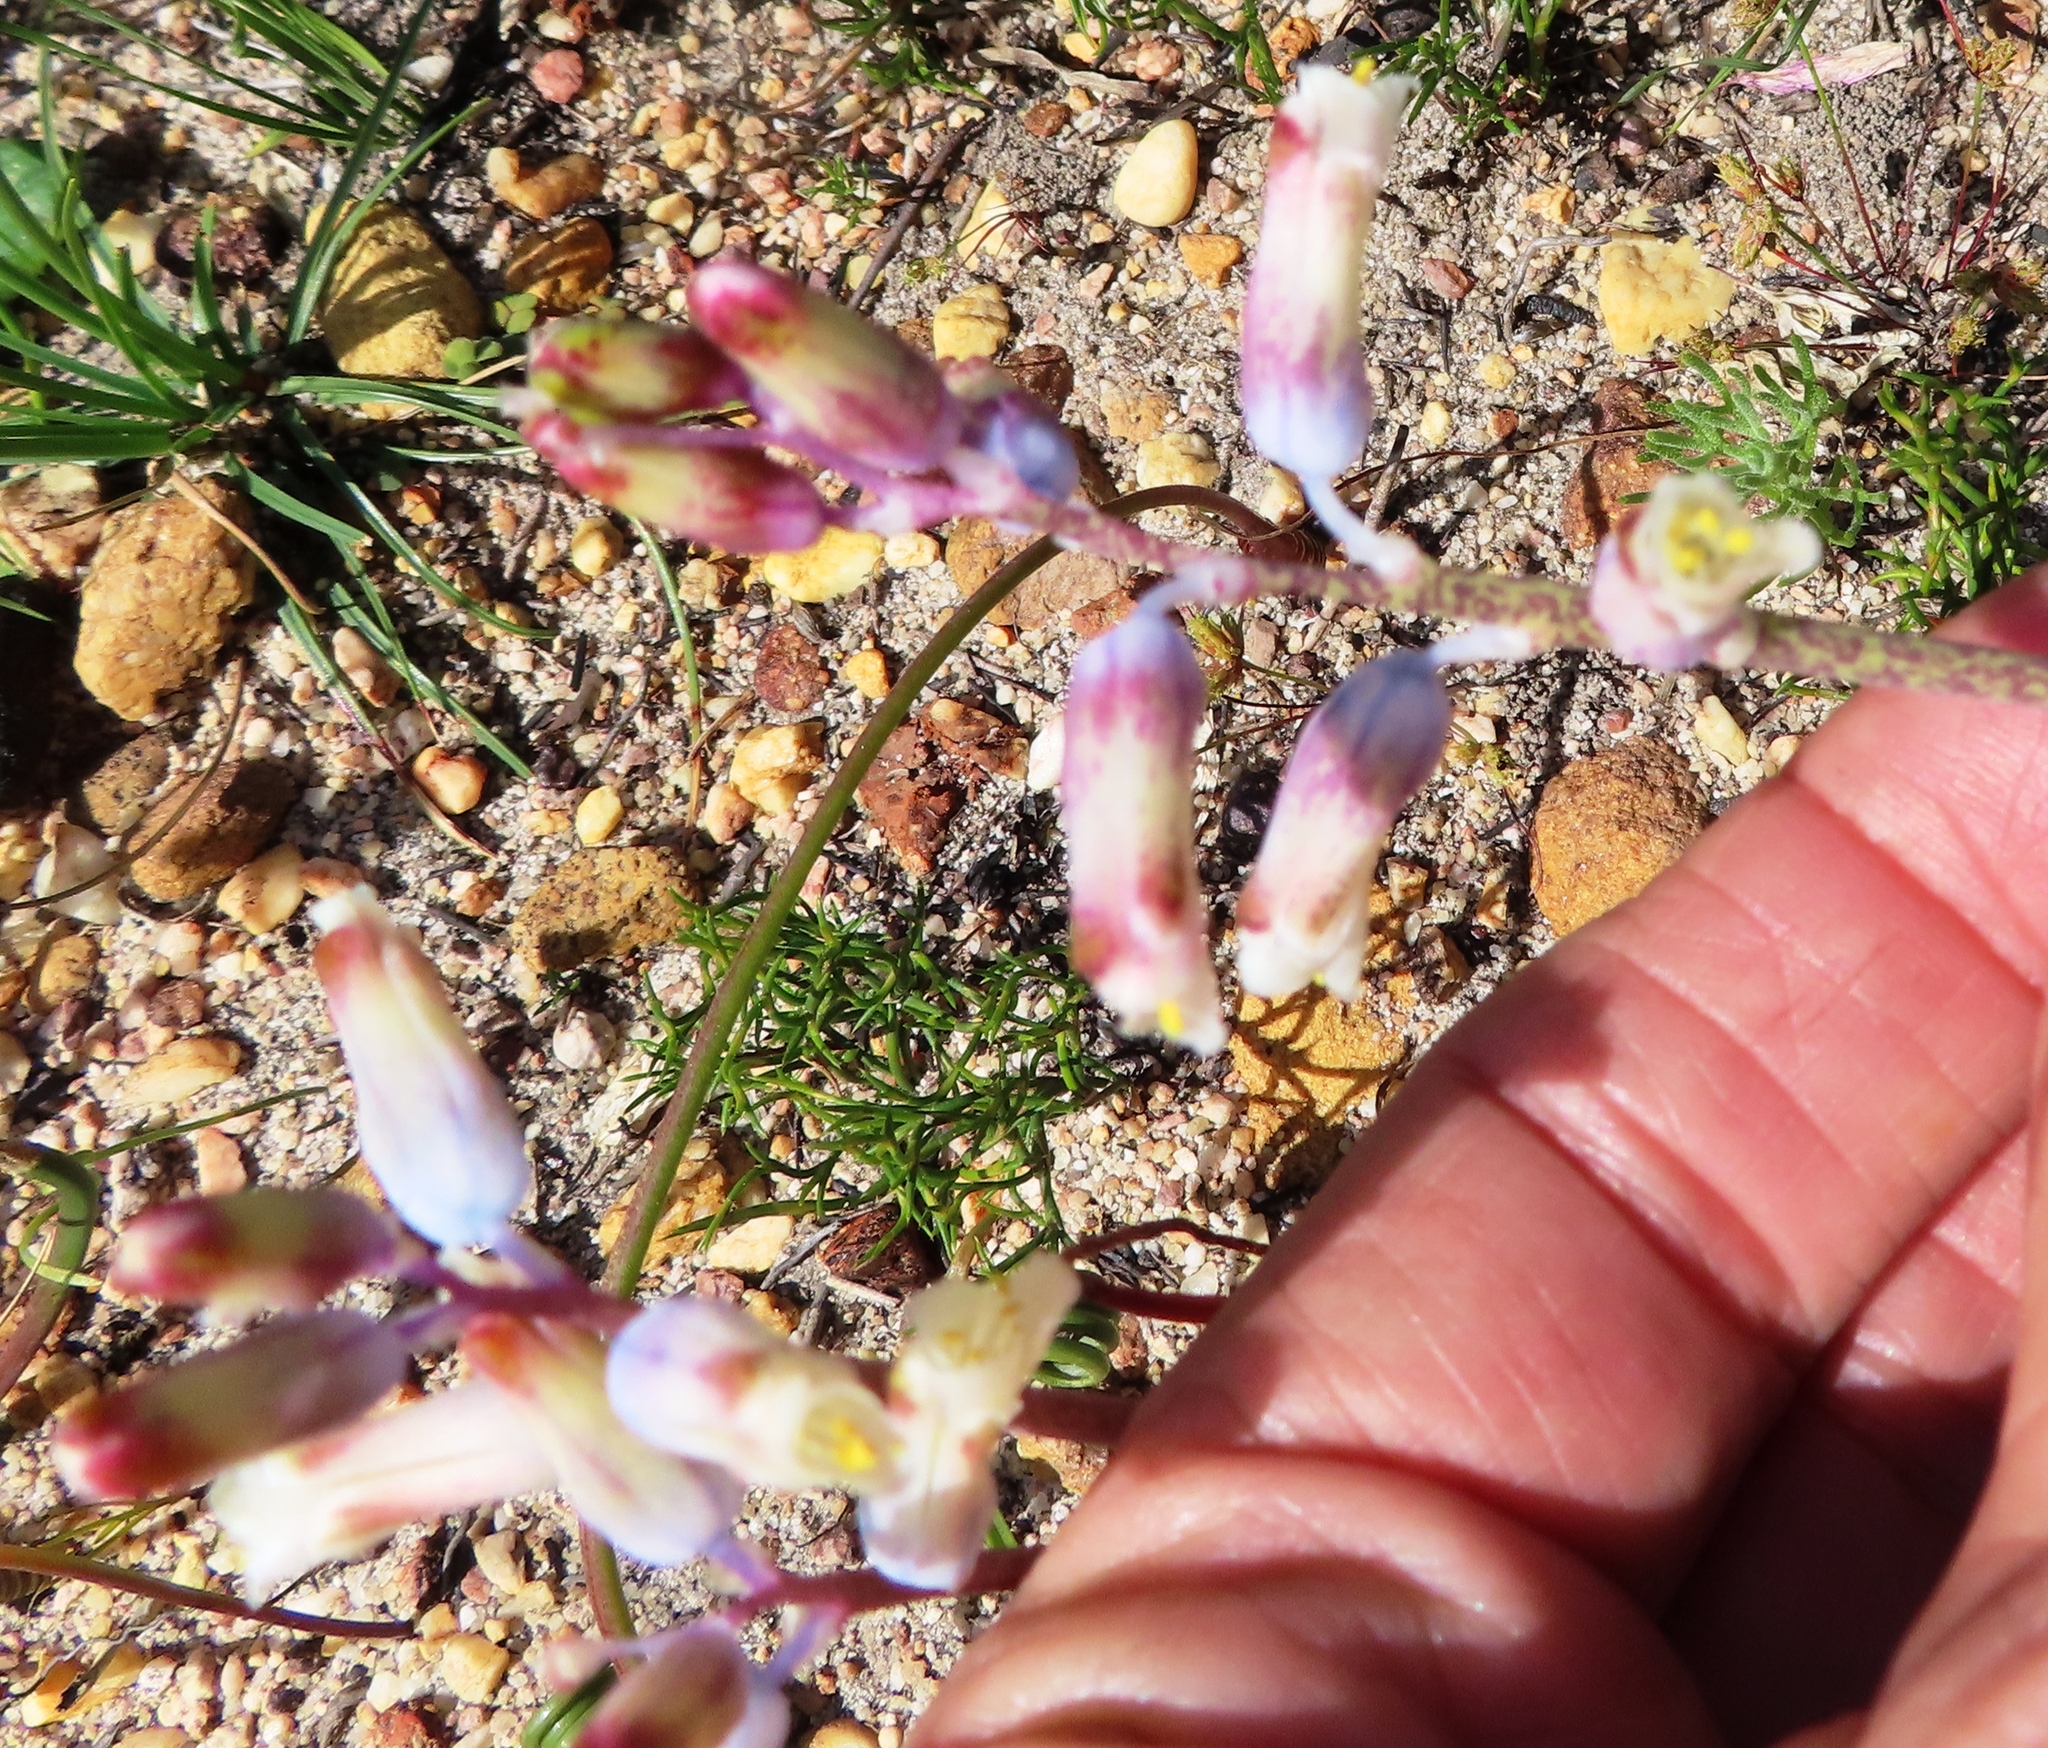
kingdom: Plantae
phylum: Tracheophyta
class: Liliopsida
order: Asparagales
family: Asparagaceae
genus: Lachenalia
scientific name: Lachenalia unifolia
